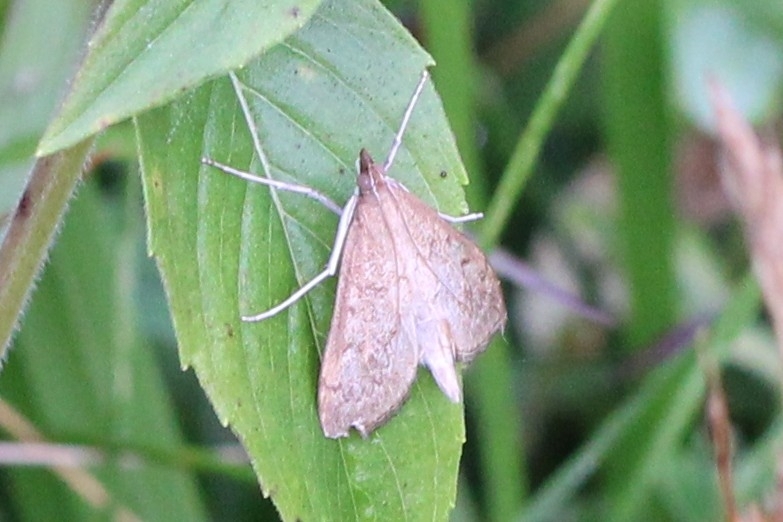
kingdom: Animalia
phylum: Arthropoda
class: Insecta
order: Lepidoptera
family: Crambidae
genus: Saucrobotys
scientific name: Saucrobotys futilalis
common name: Dogbane saucrobotys moth
